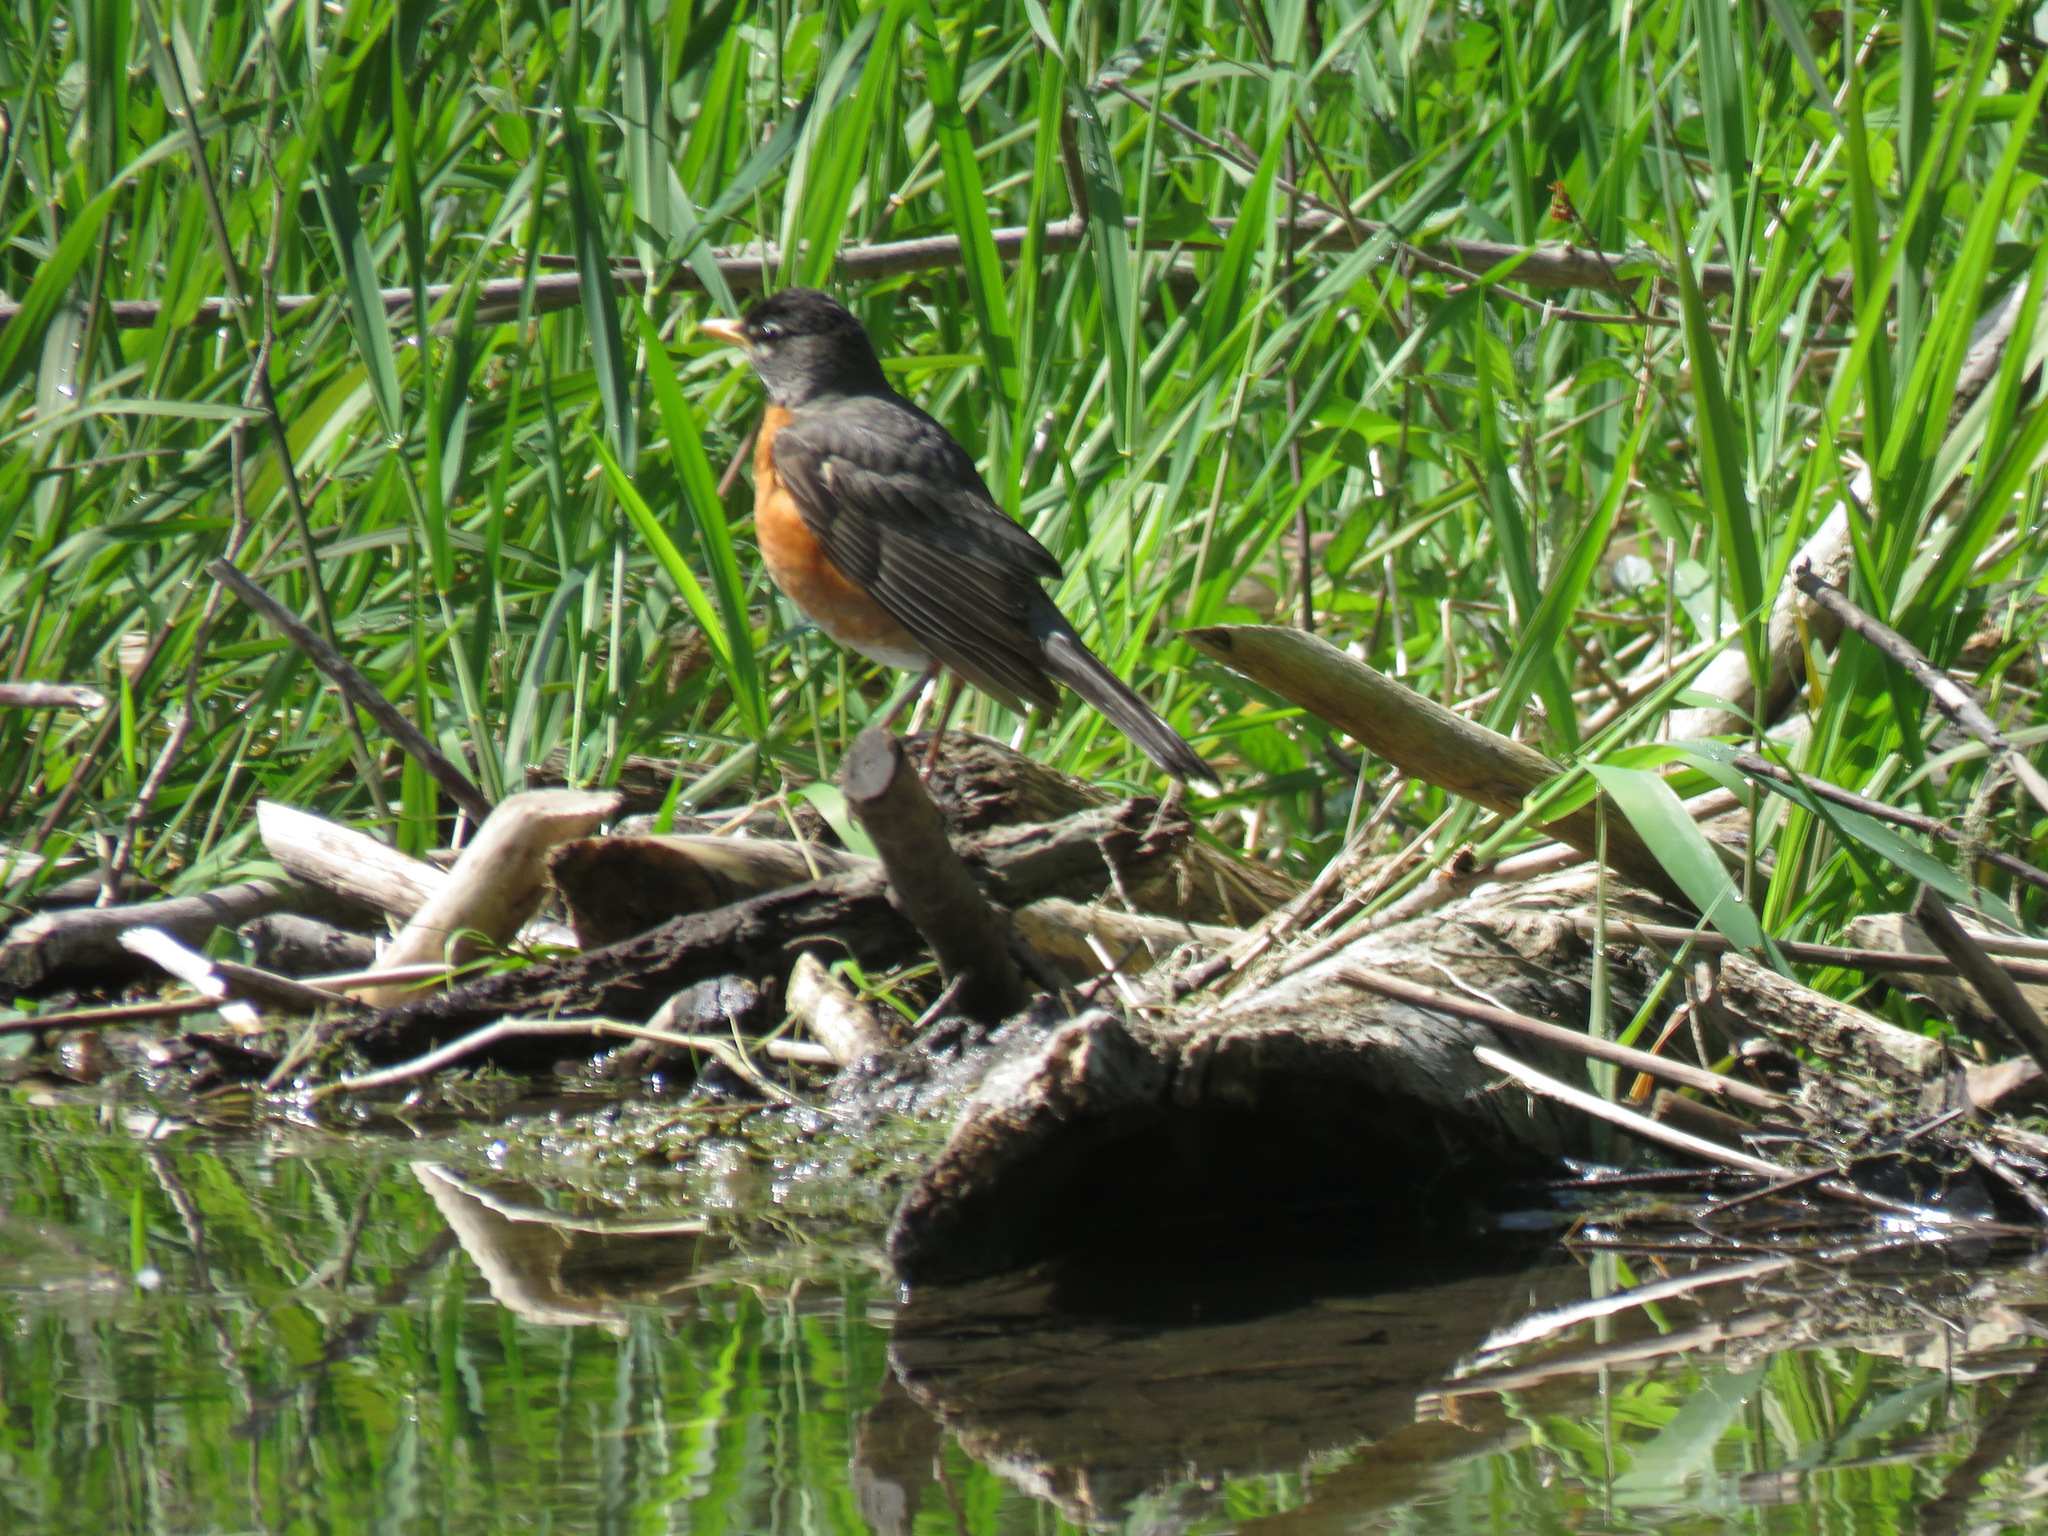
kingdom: Animalia
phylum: Chordata
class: Aves
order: Passeriformes
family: Turdidae
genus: Turdus
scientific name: Turdus migratorius
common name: American robin
